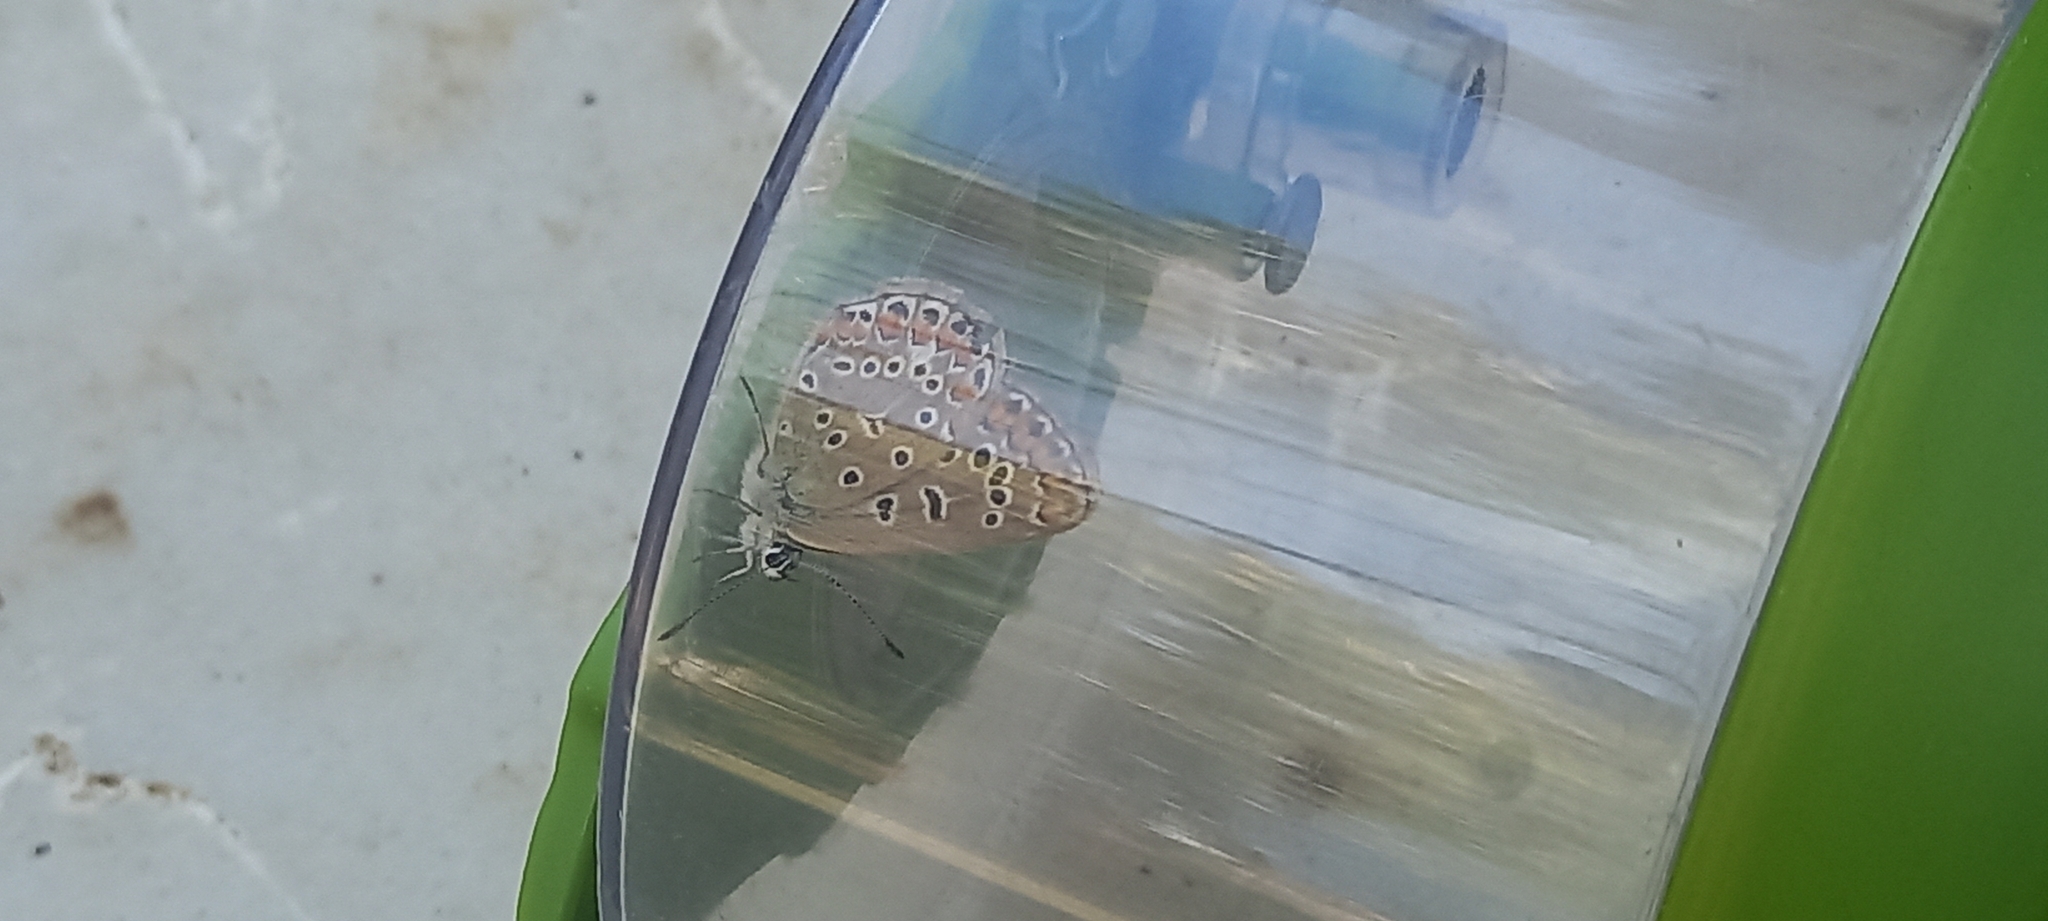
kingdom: Animalia
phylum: Arthropoda
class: Insecta
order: Lepidoptera
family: Lycaenidae
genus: Polyommatus
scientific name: Polyommatus icarus
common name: Common blue
